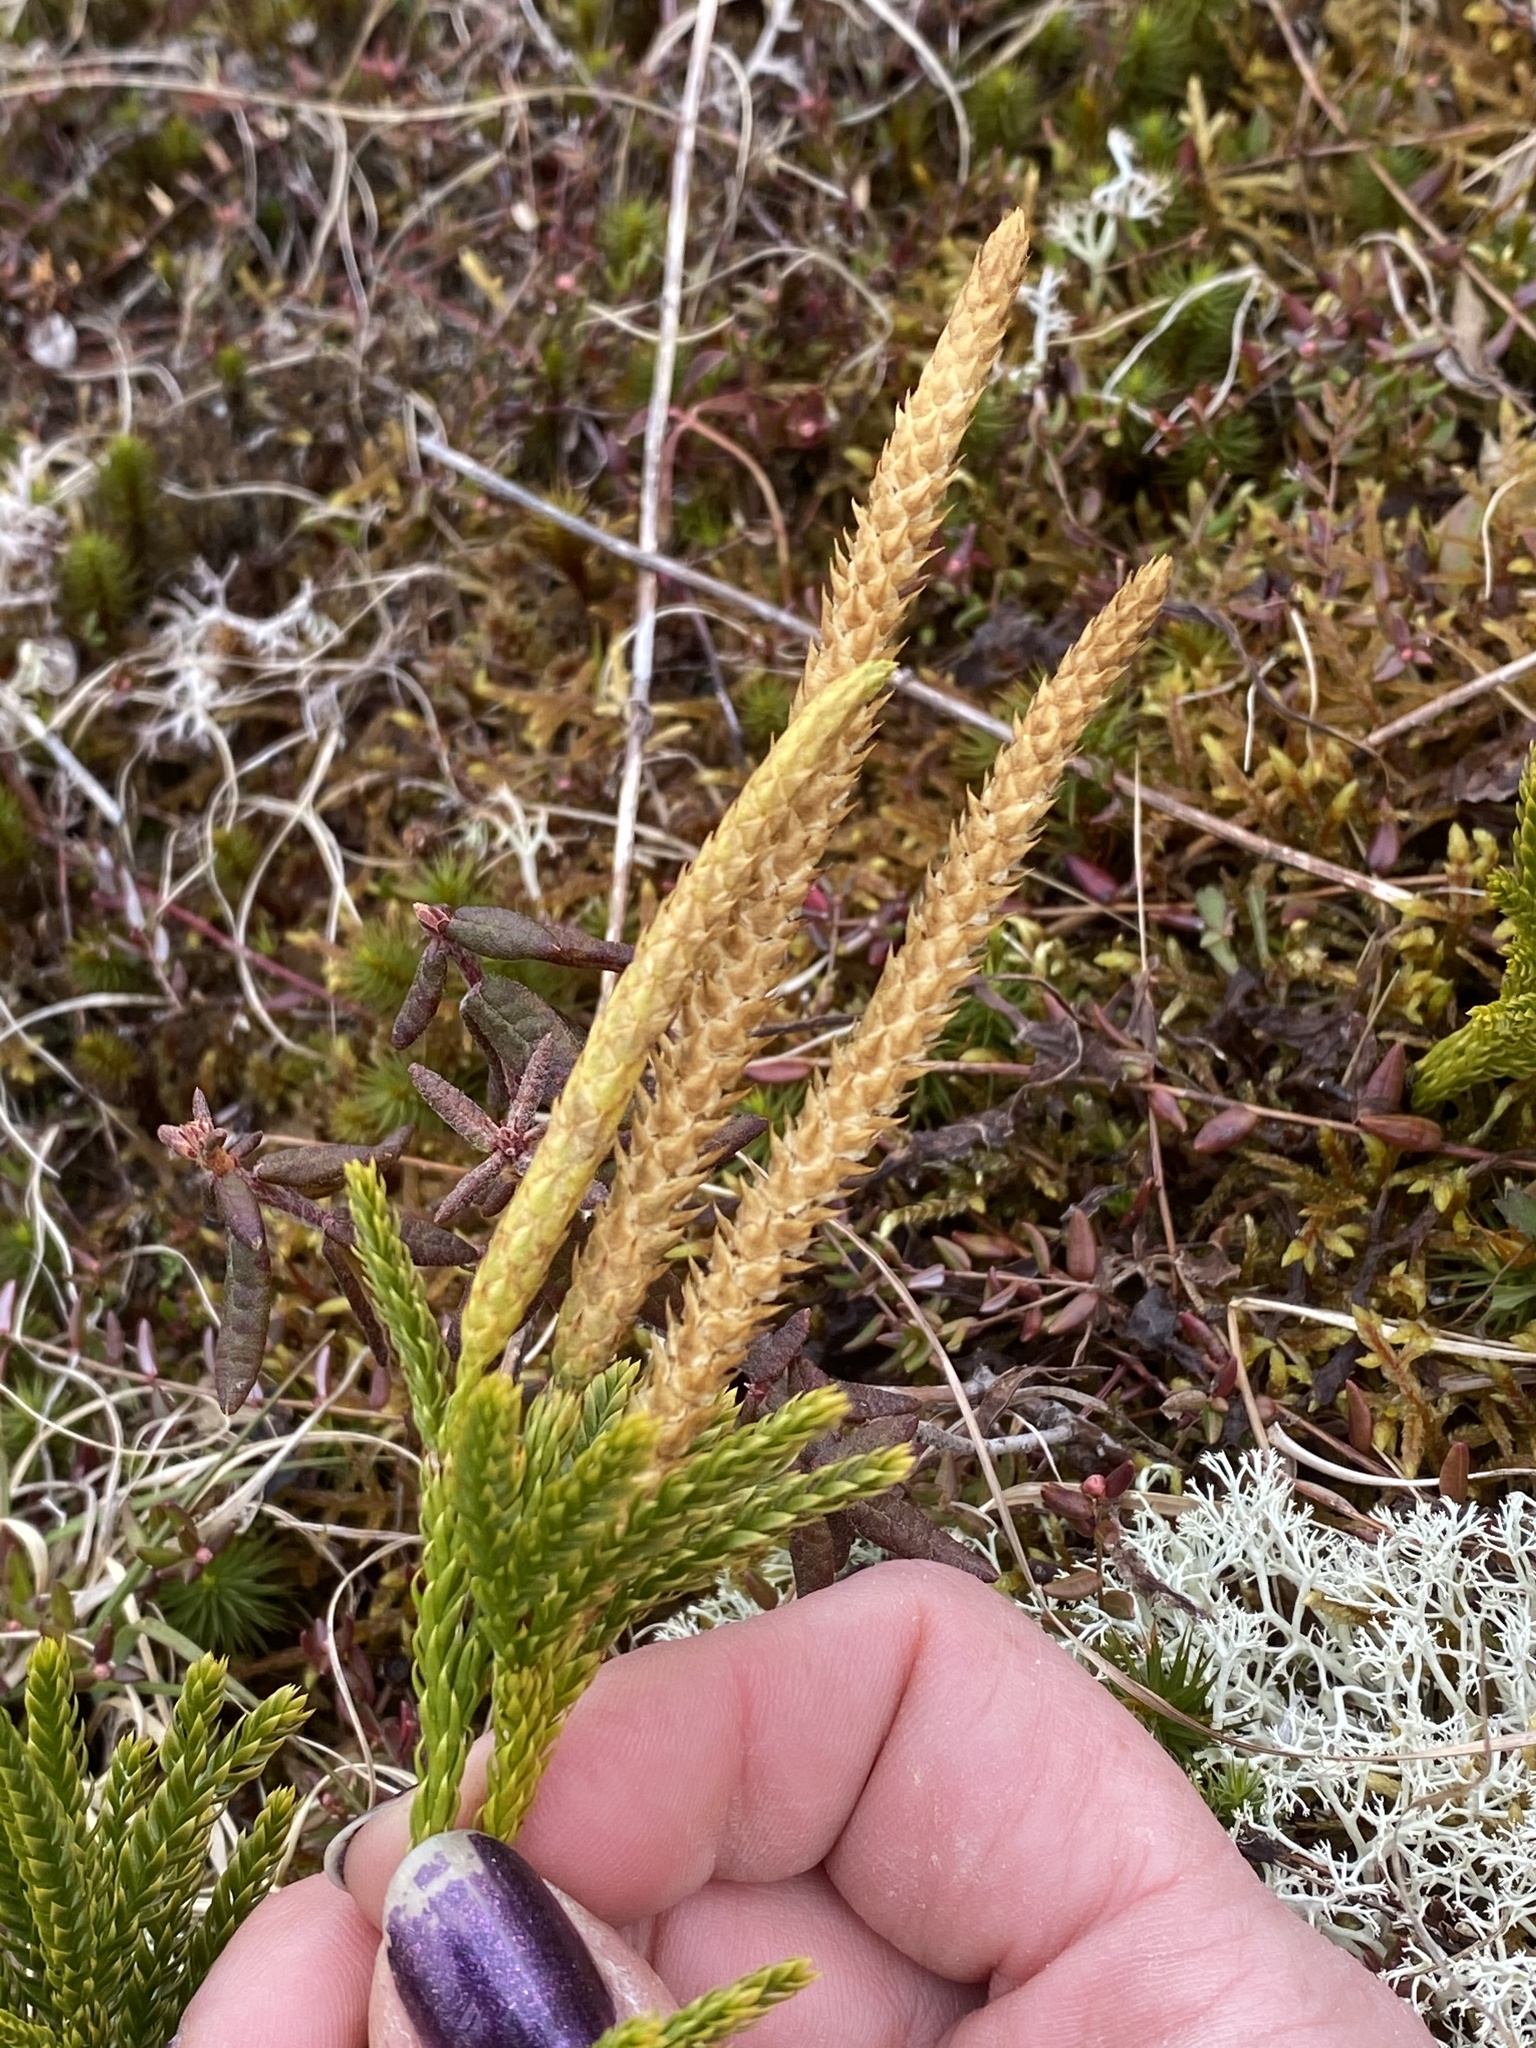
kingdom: Plantae
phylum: Tracheophyta
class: Lycopodiopsida
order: Lycopodiales
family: Lycopodiaceae
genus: Dendrolycopodium
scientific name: Dendrolycopodium hickeyi
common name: Hickey's clubmoss
